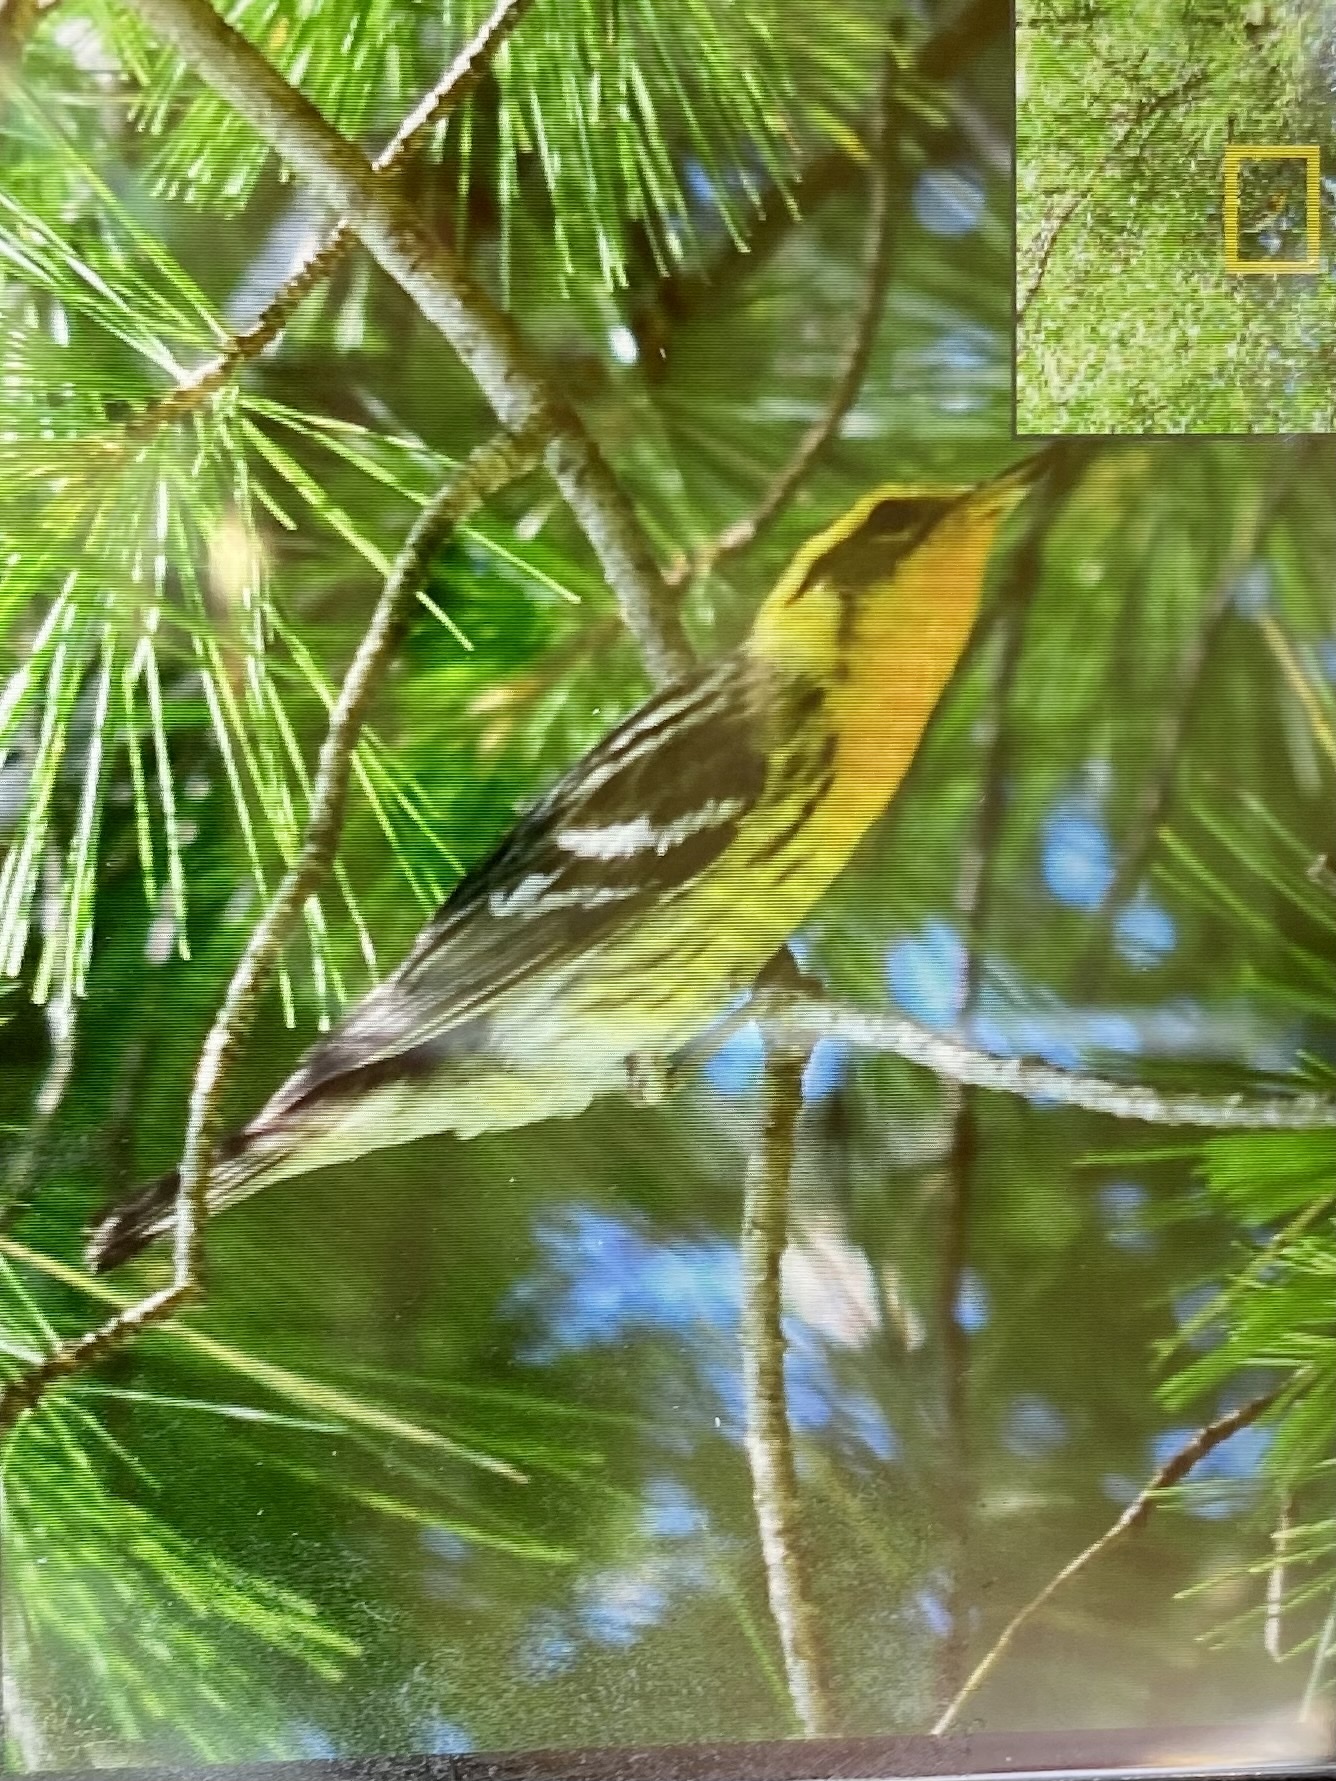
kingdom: Animalia
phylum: Chordata
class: Aves
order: Passeriformes
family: Parulidae
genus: Setophaga
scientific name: Setophaga fusca
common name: Blackburnian warbler
